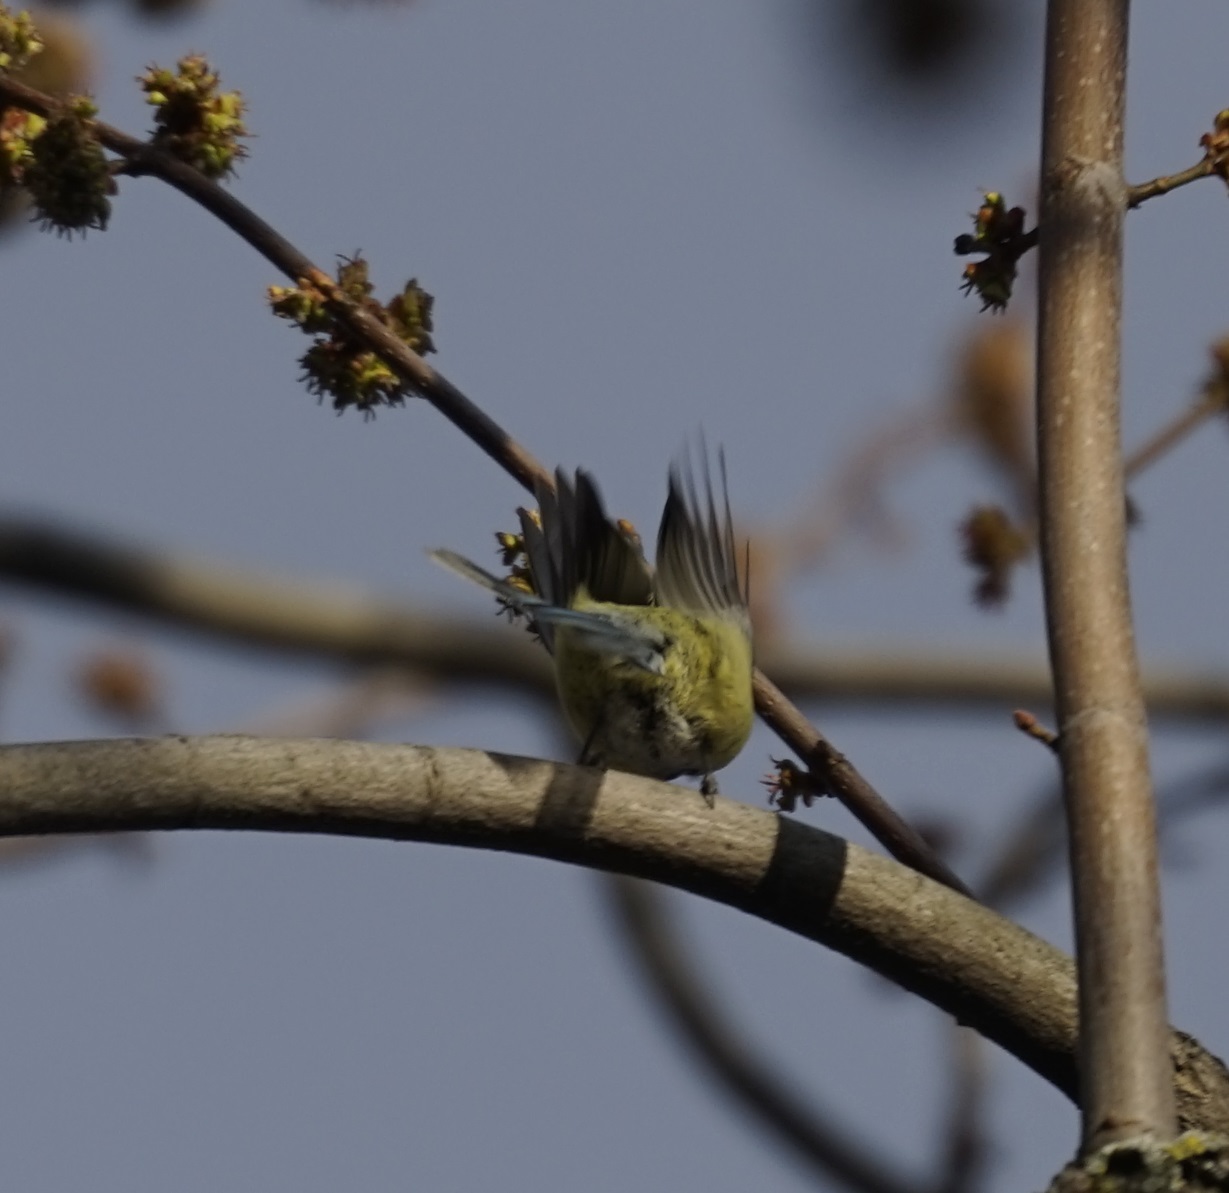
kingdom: Animalia
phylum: Chordata
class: Aves
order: Passeriformes
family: Paridae
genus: Cyanistes
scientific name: Cyanistes caeruleus
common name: Eurasian blue tit
